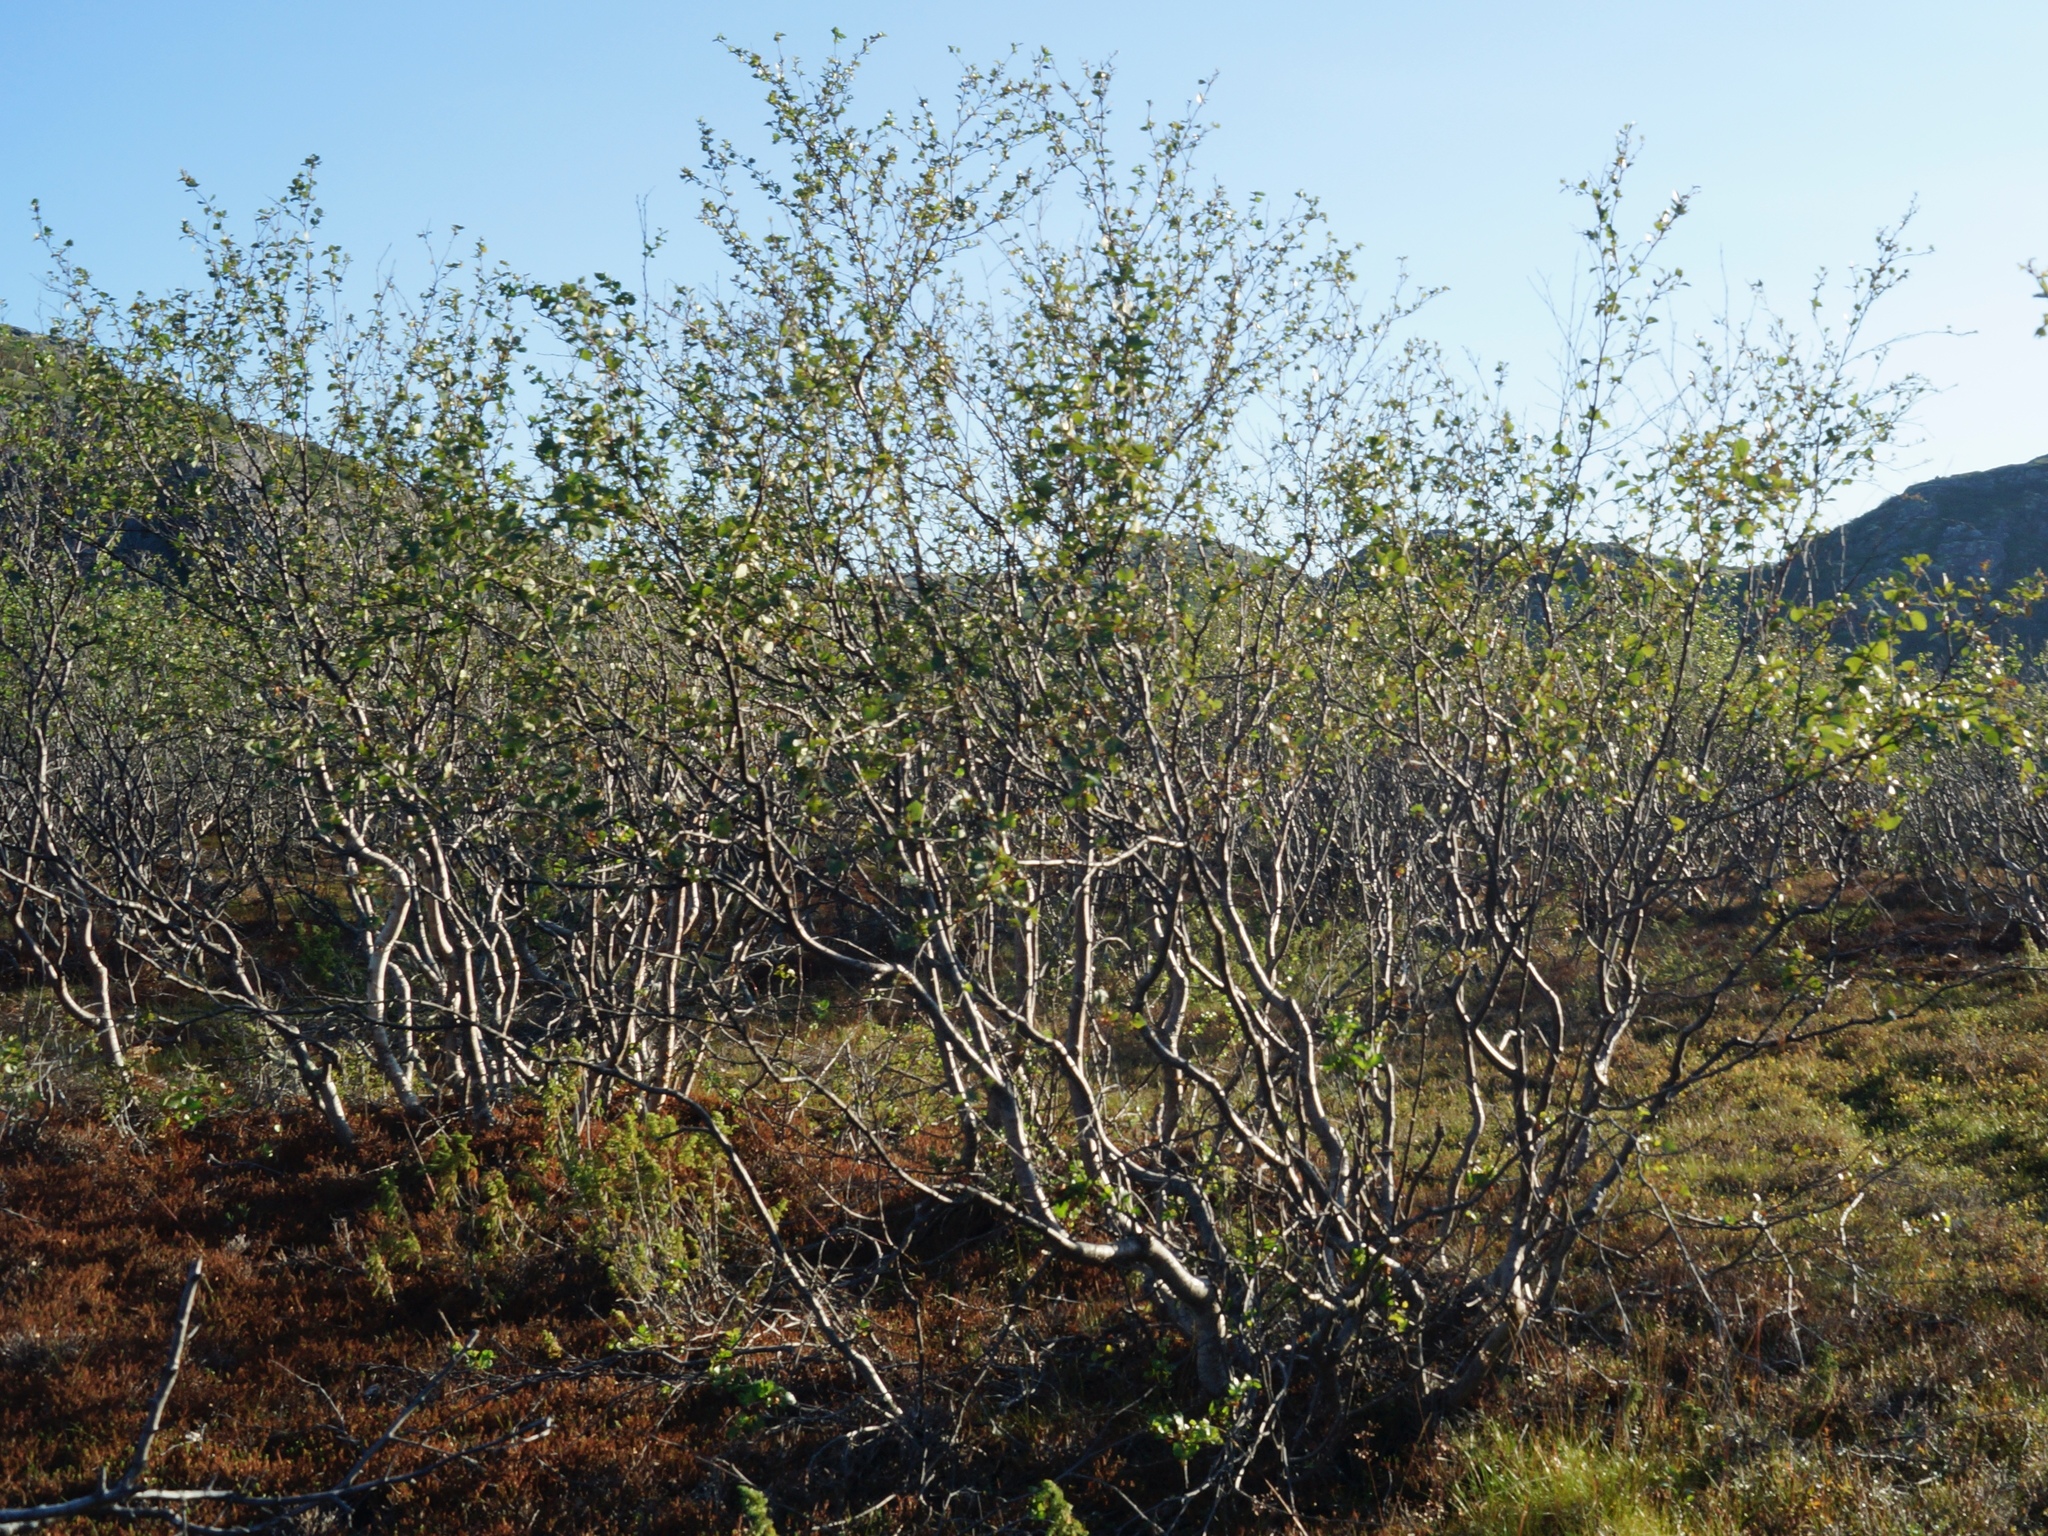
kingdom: Plantae
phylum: Tracheophyta
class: Magnoliopsida
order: Fagales
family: Betulaceae
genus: Betula
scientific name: Betula pubescens
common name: Downy birch
